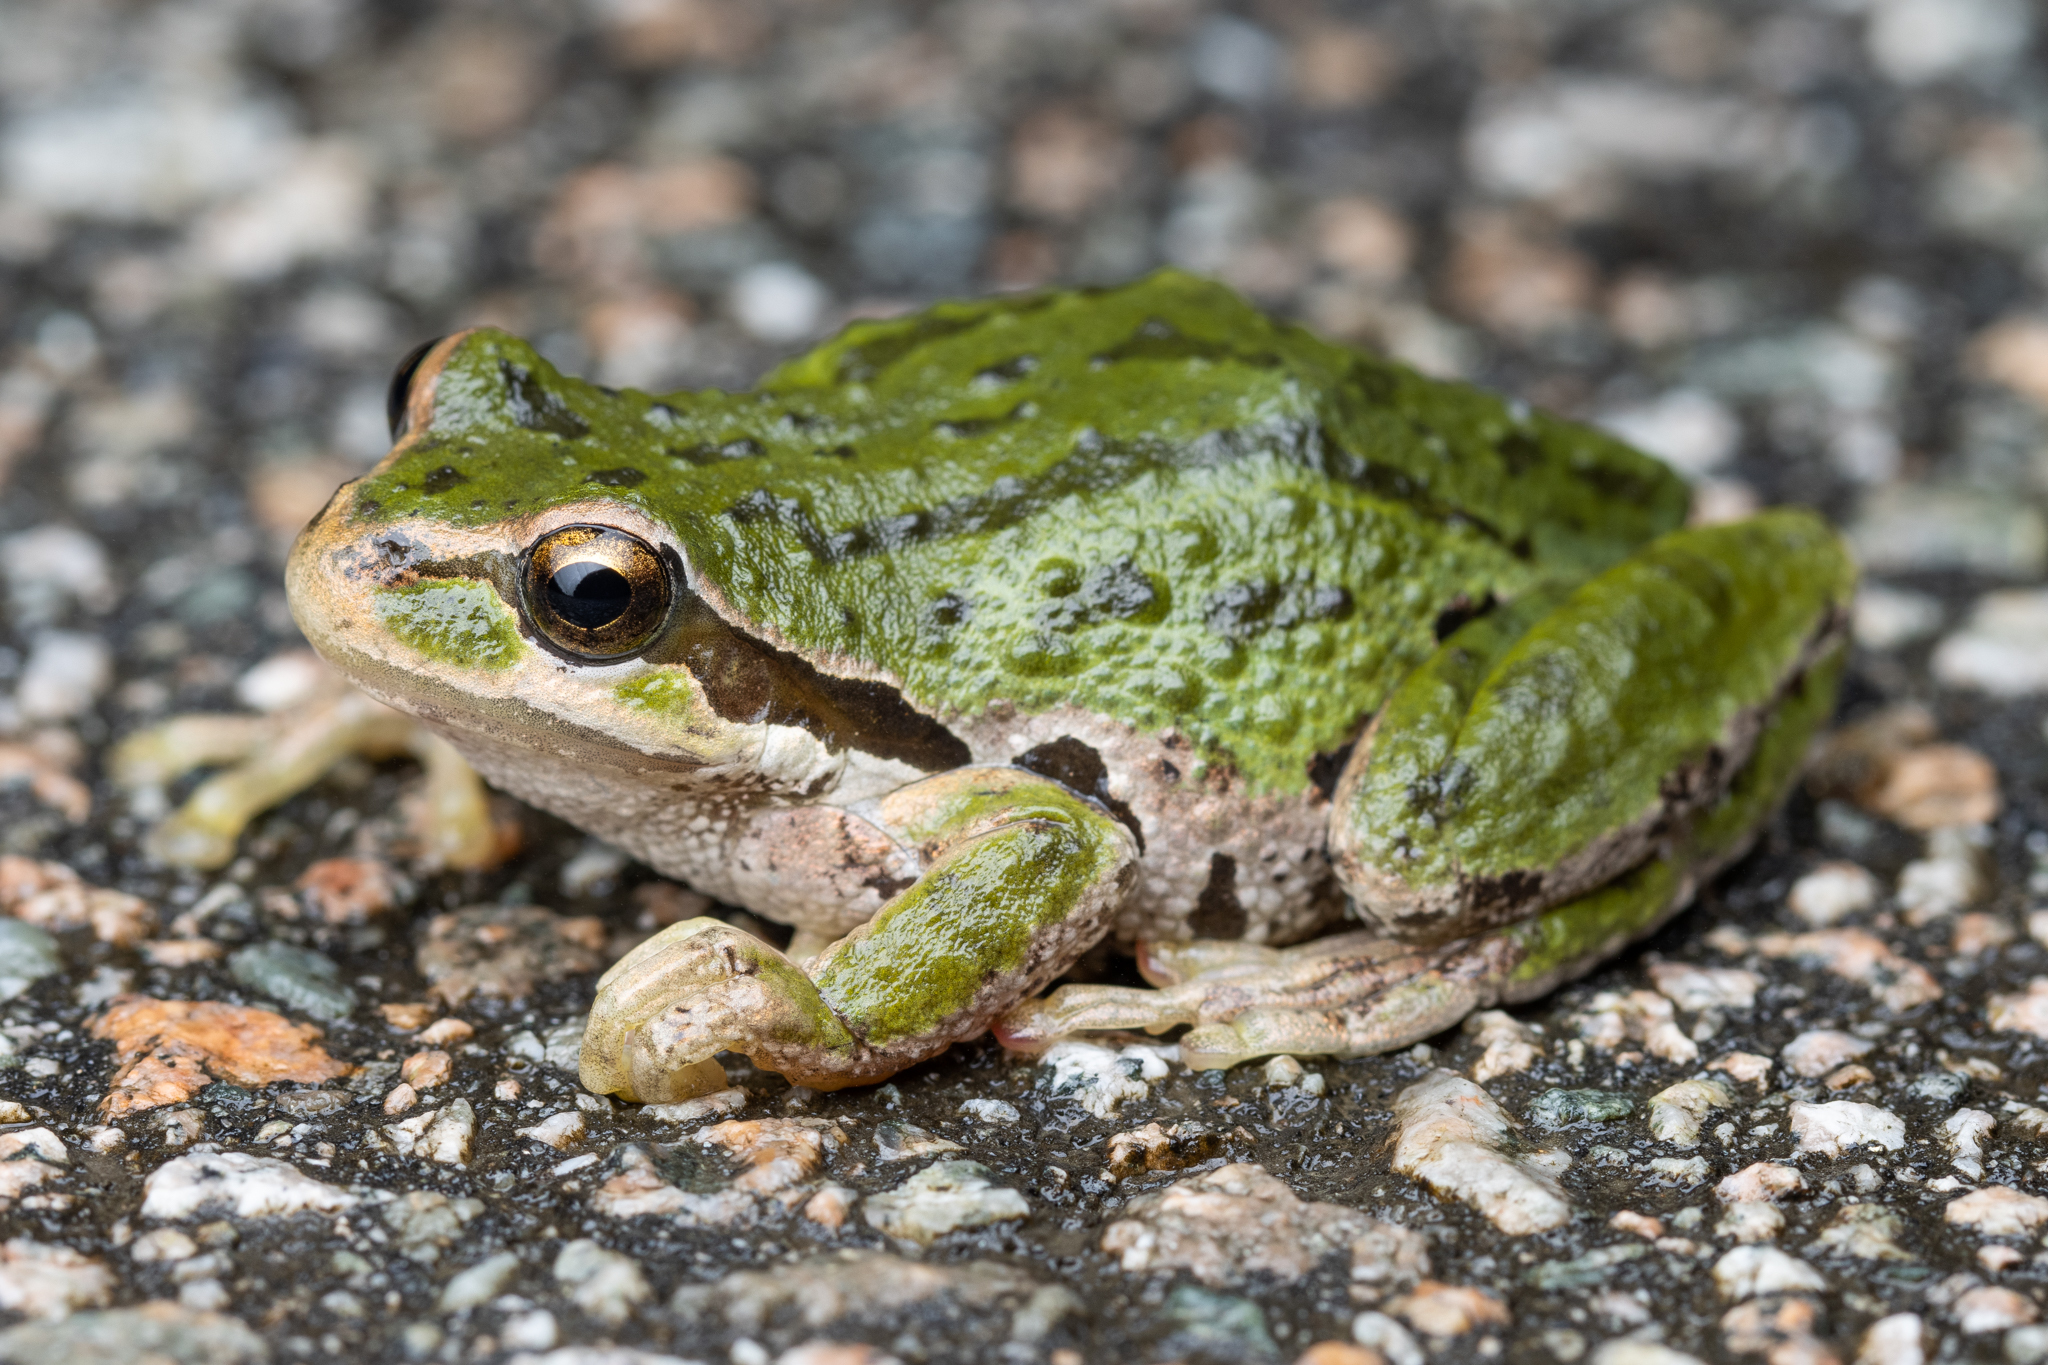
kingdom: Animalia
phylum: Chordata
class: Amphibia
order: Anura
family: Hylidae
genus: Pseudacris
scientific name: Pseudacris regilla
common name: Pacific chorus frog
